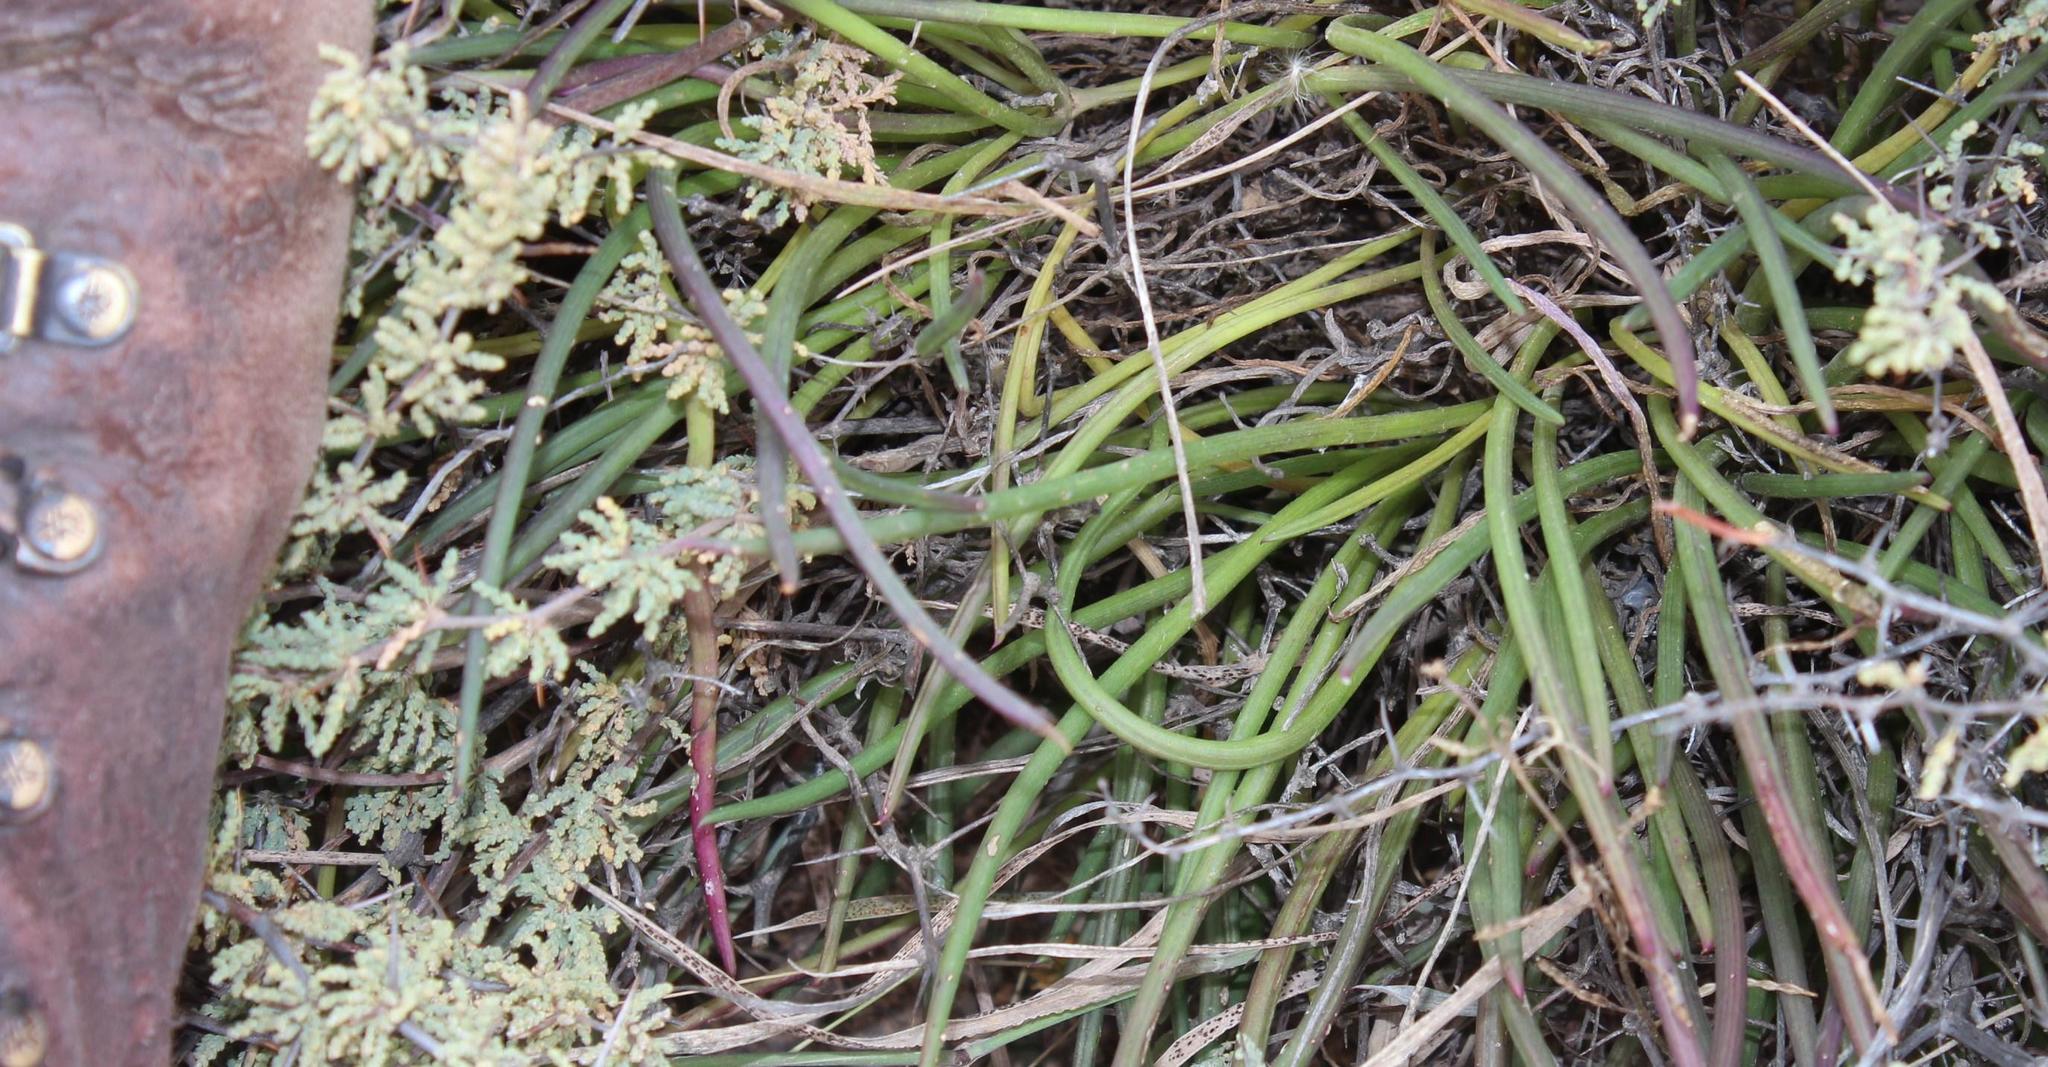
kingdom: Plantae
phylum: Tracheophyta
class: Magnoliopsida
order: Asterales
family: Asteraceae
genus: Curio
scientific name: Curio acaulis
